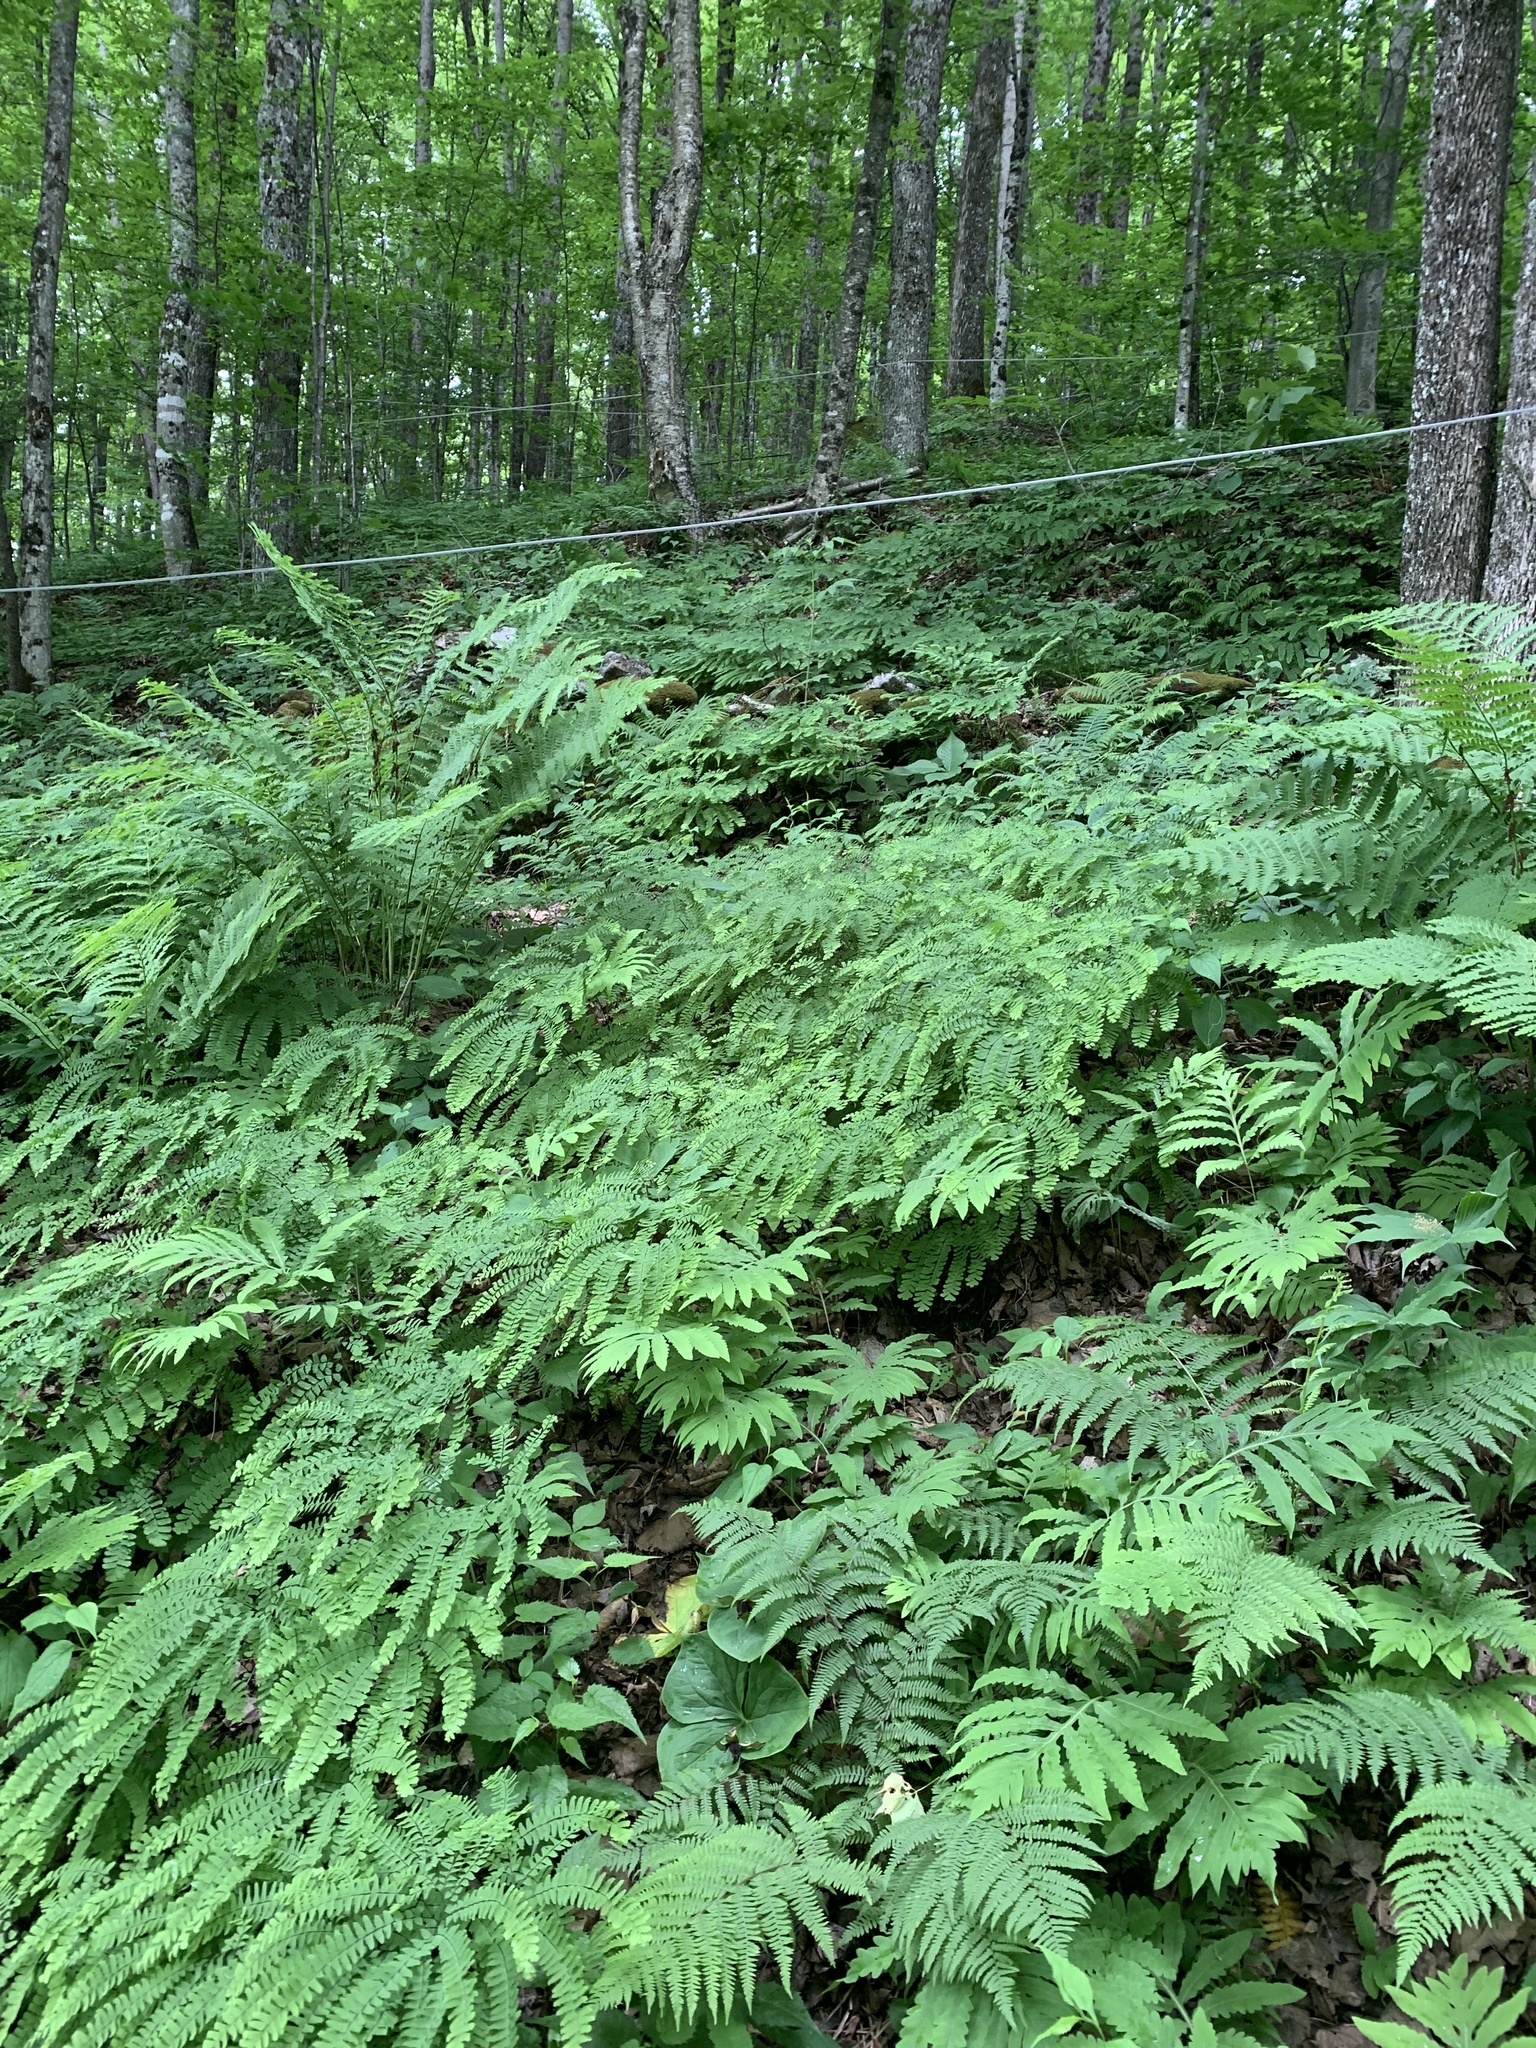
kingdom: Plantae
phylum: Tracheophyta
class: Polypodiopsida
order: Polypodiales
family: Pteridaceae
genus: Adiantum
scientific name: Adiantum pedatum
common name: Five-finger fern
